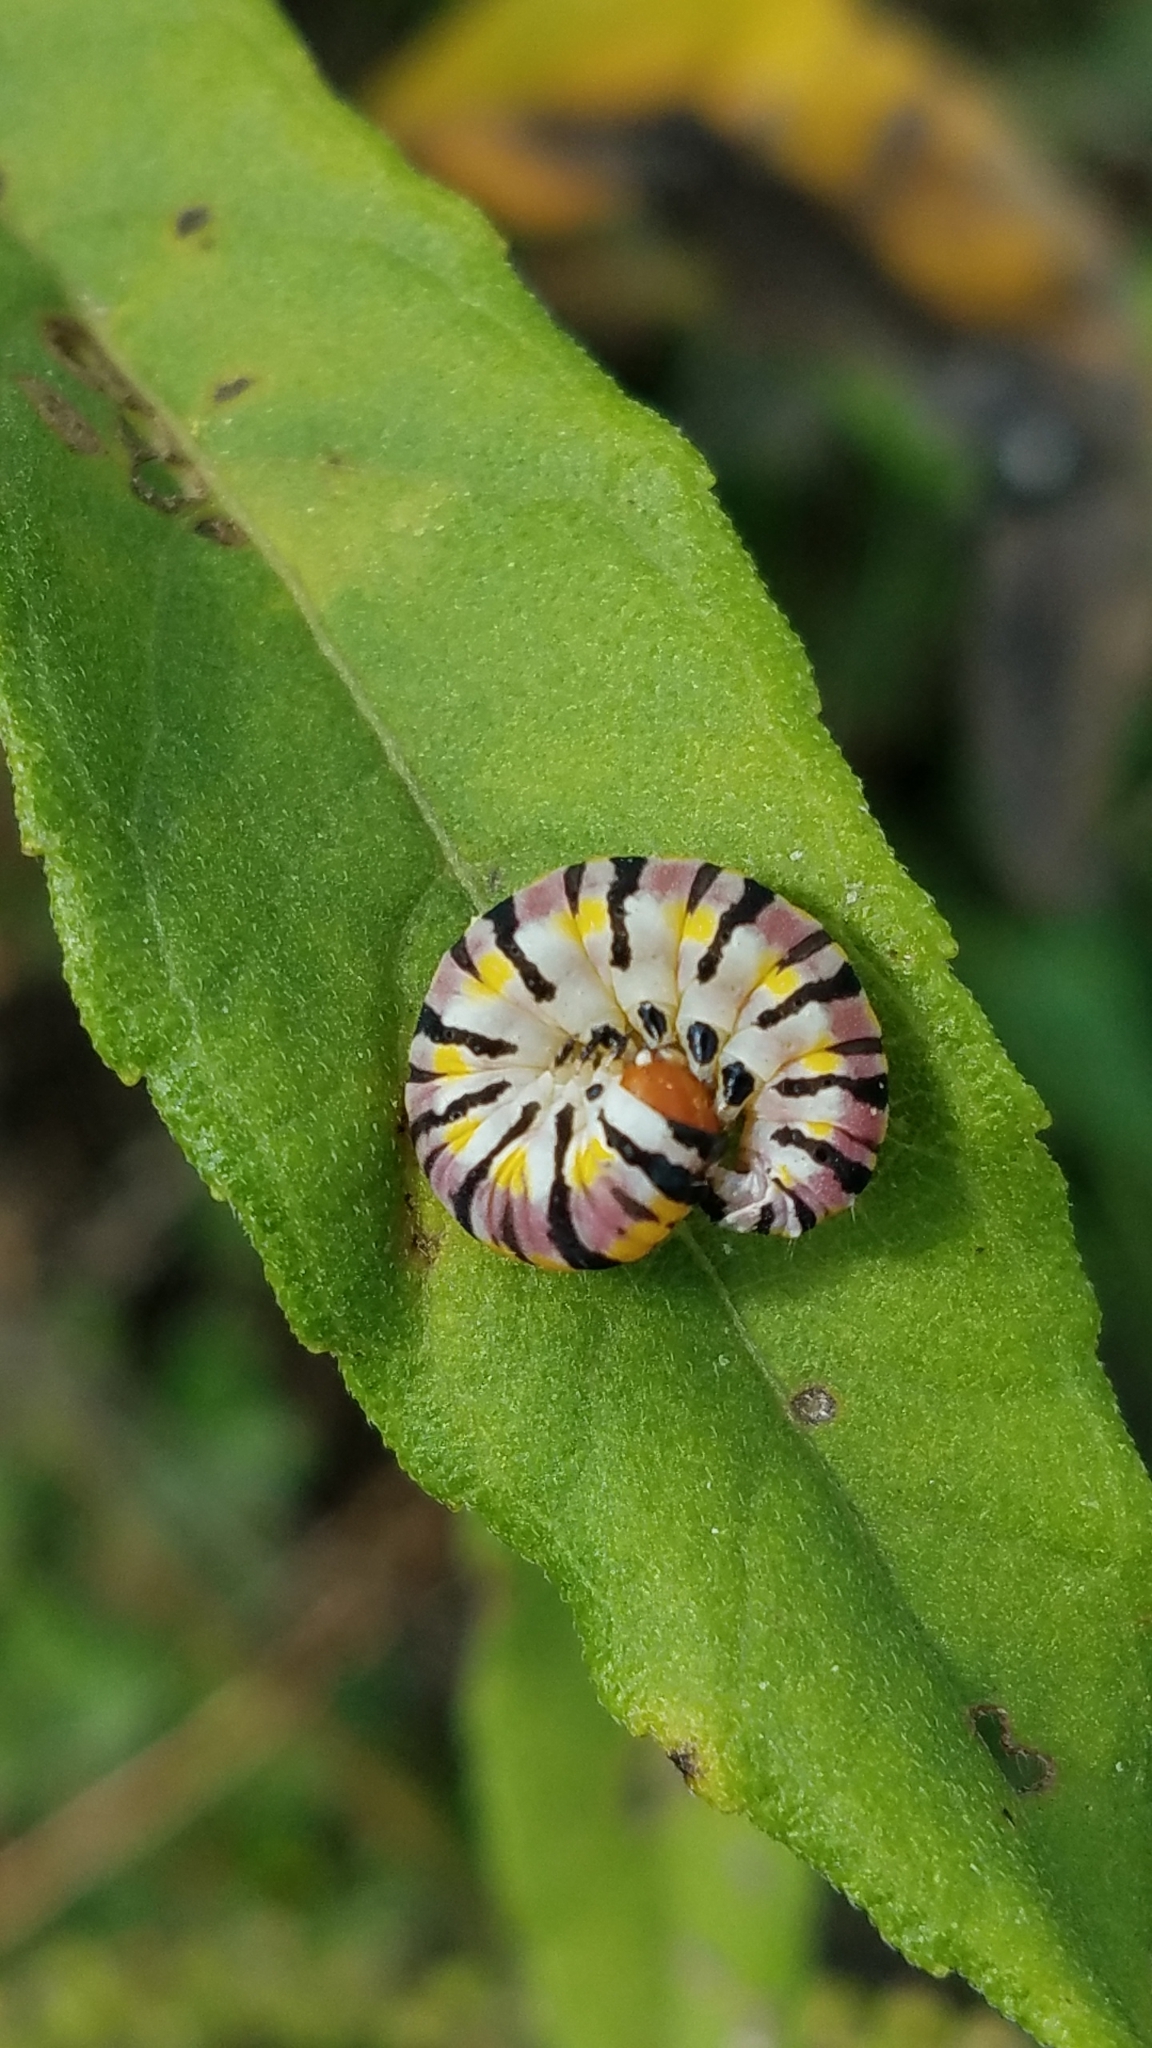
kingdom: Animalia
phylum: Arthropoda
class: Insecta
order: Lepidoptera
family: Noctuidae
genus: Schinia
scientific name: Schinia gaurae
